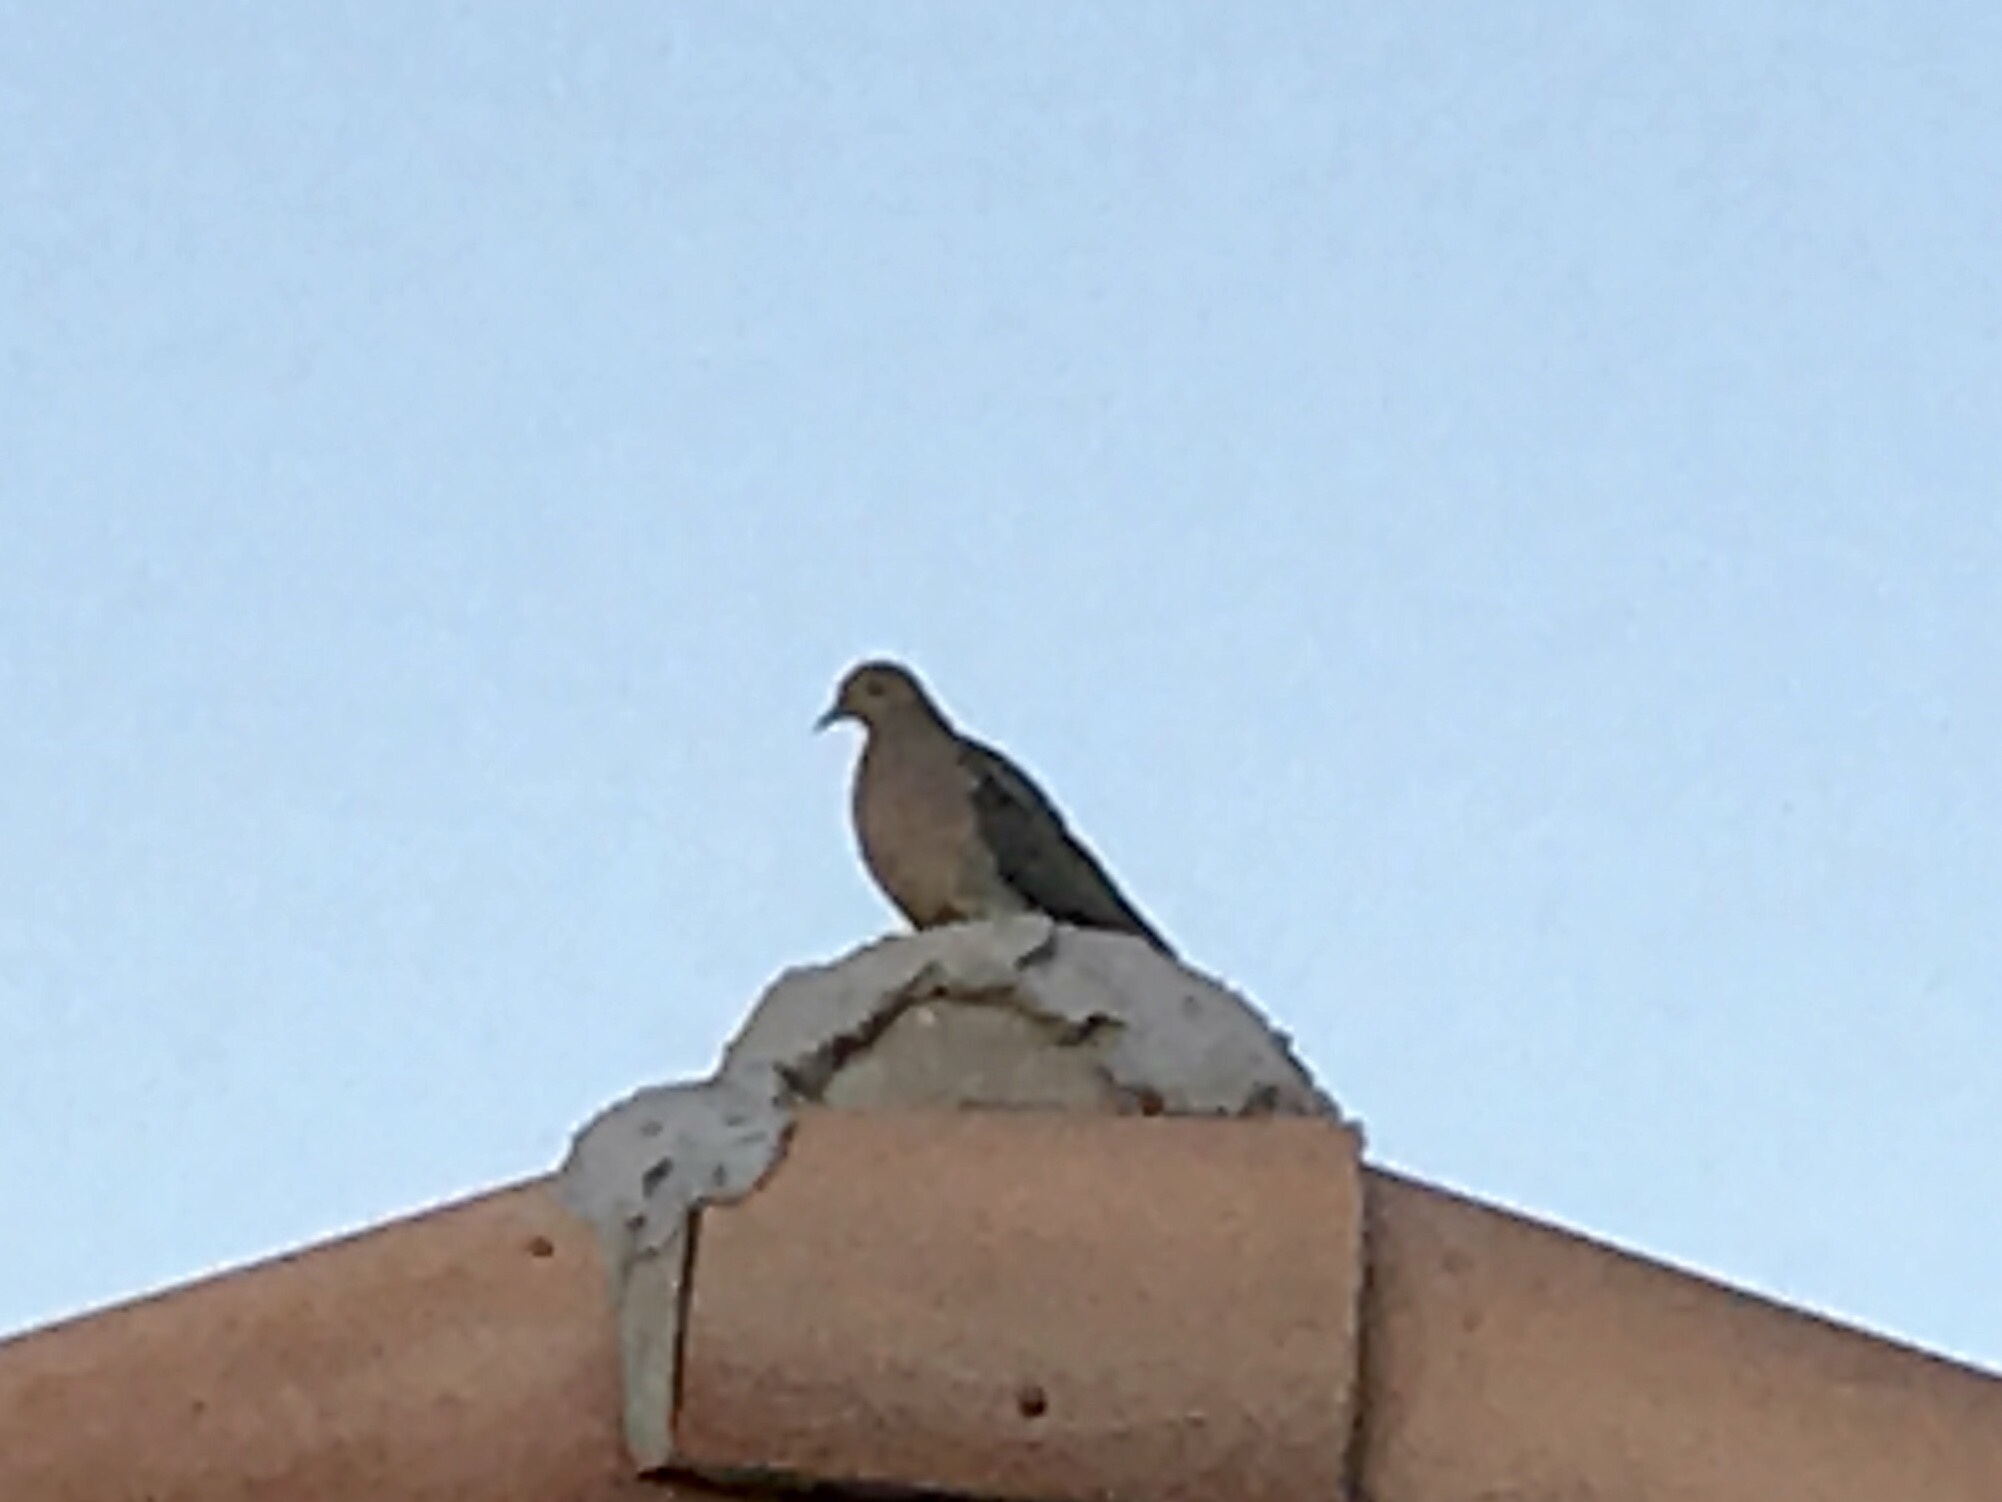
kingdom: Animalia
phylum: Chordata
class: Aves
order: Columbiformes
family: Columbidae
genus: Zenaida
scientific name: Zenaida macroura
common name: Mourning dove
